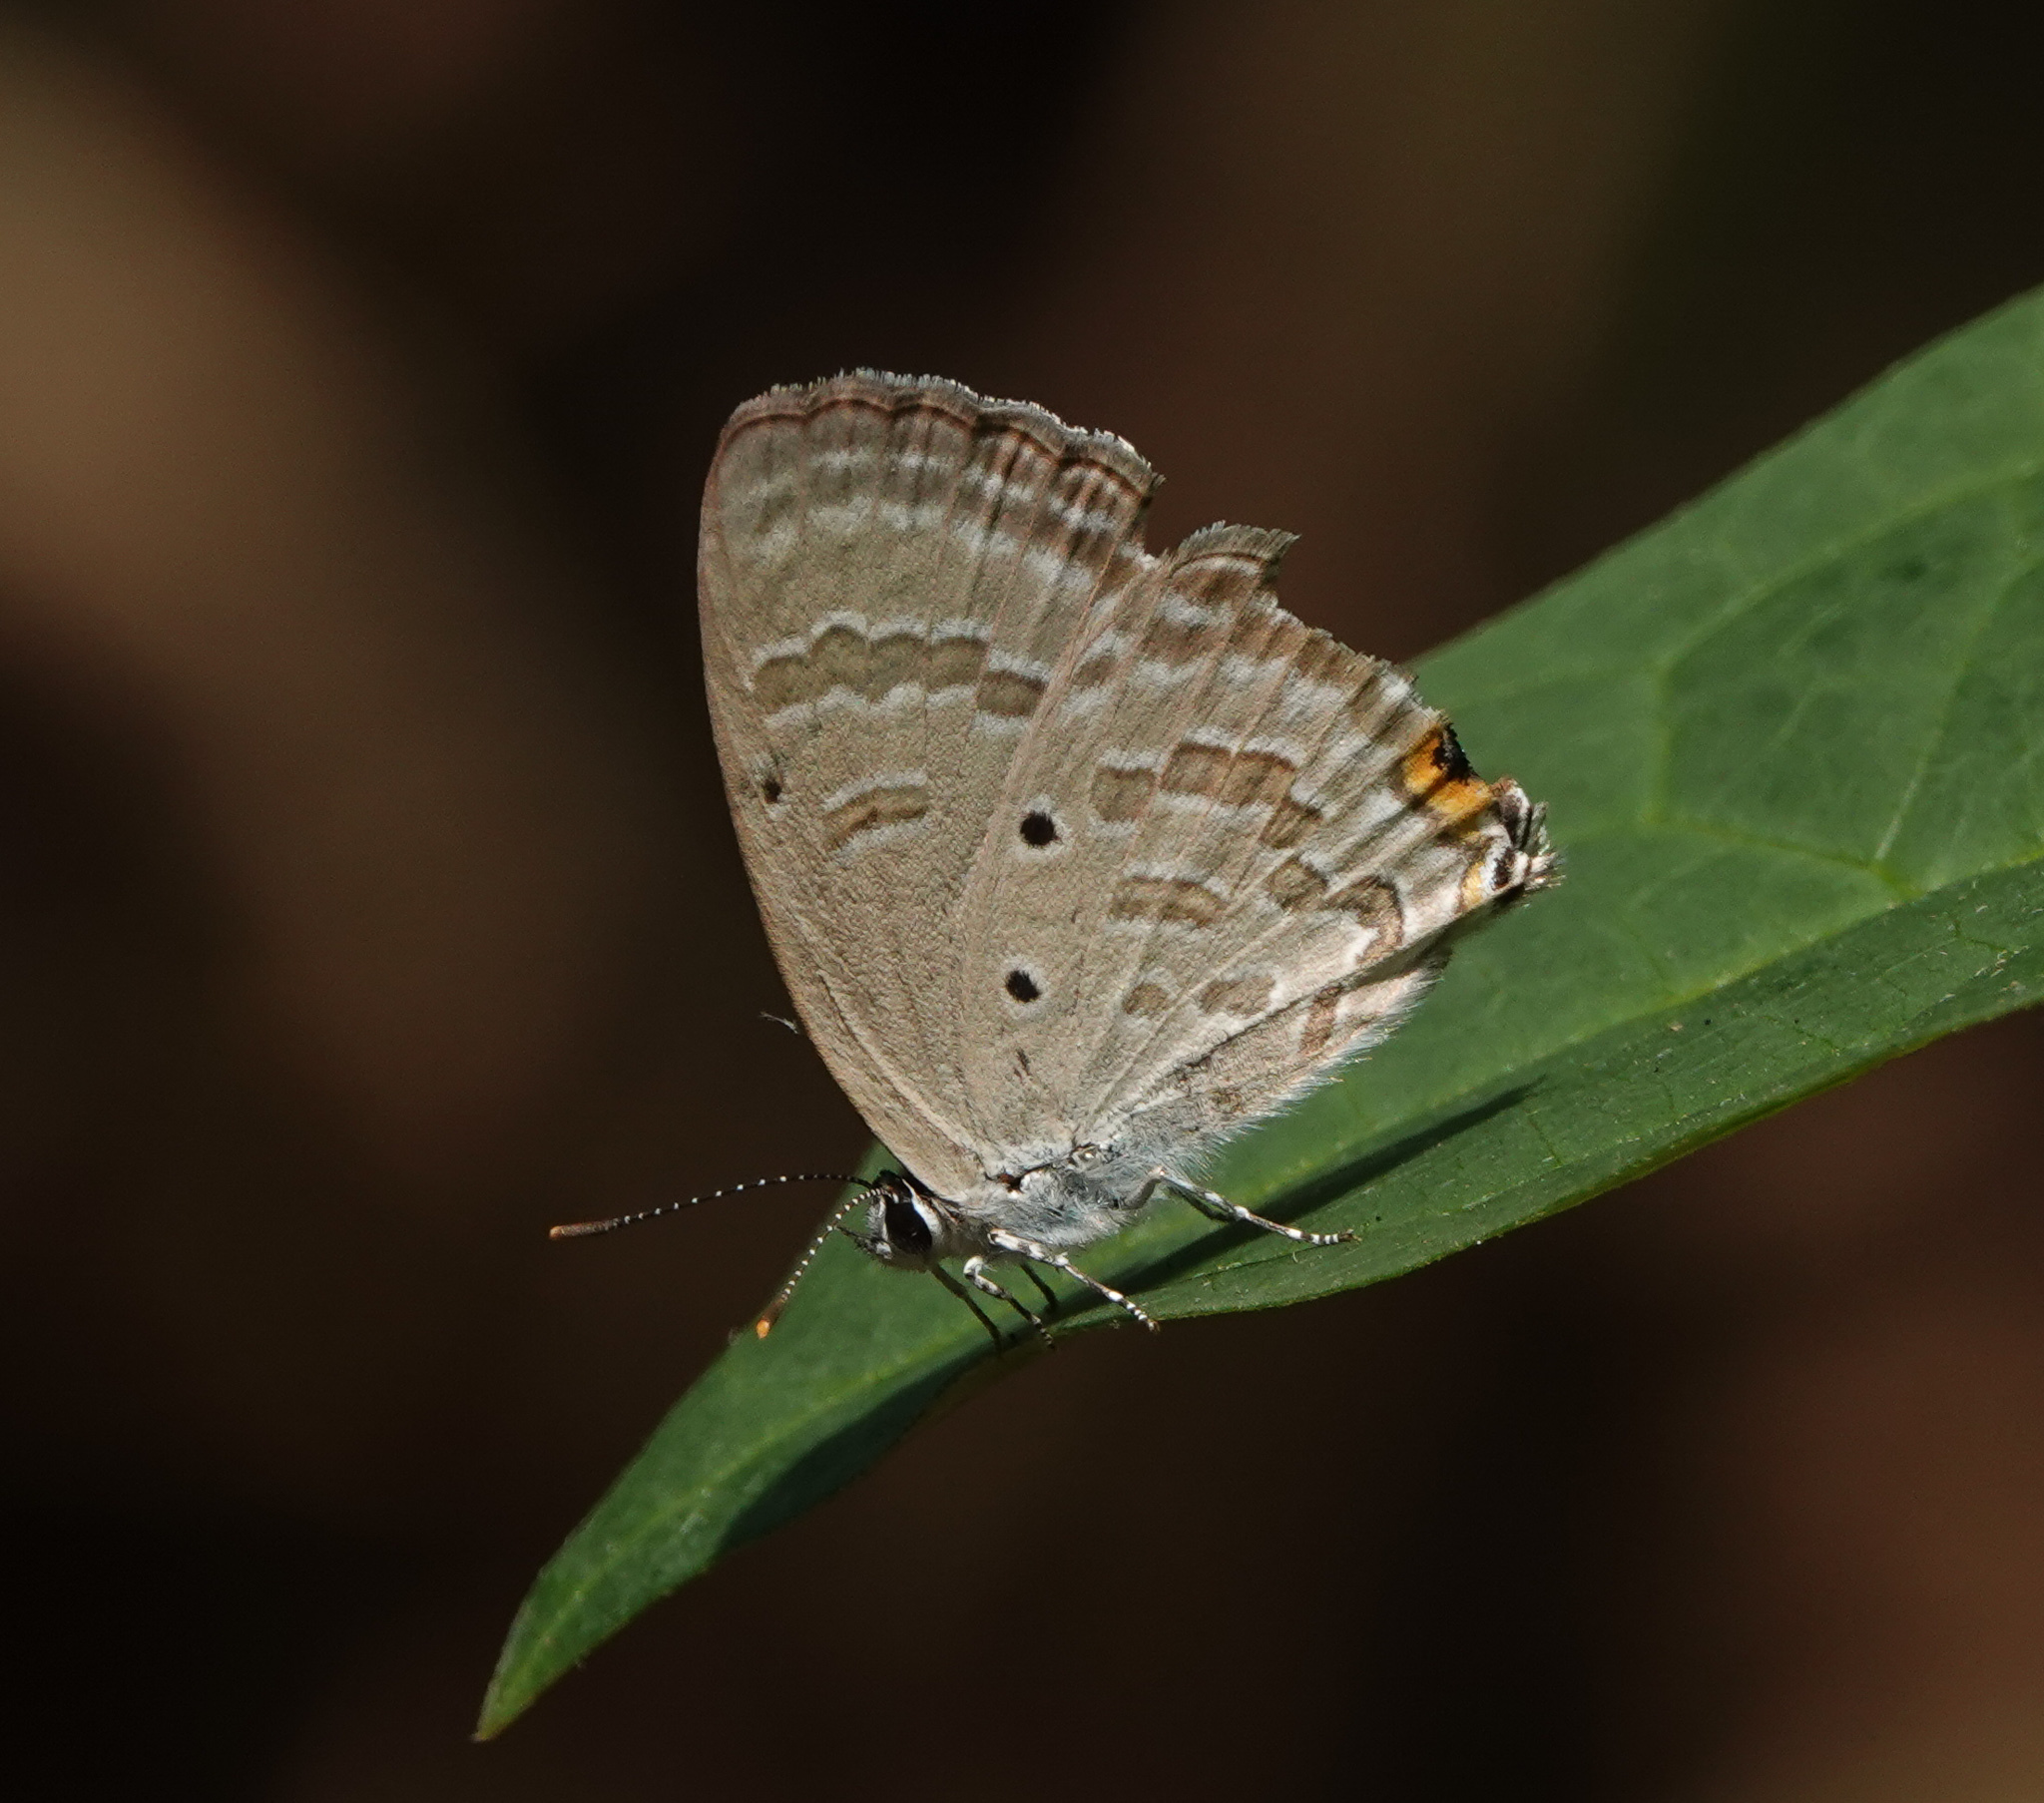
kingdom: Animalia
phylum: Arthropoda
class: Insecta
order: Lepidoptera
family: Lycaenidae
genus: Catochrysops
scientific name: Catochrysops strabo
